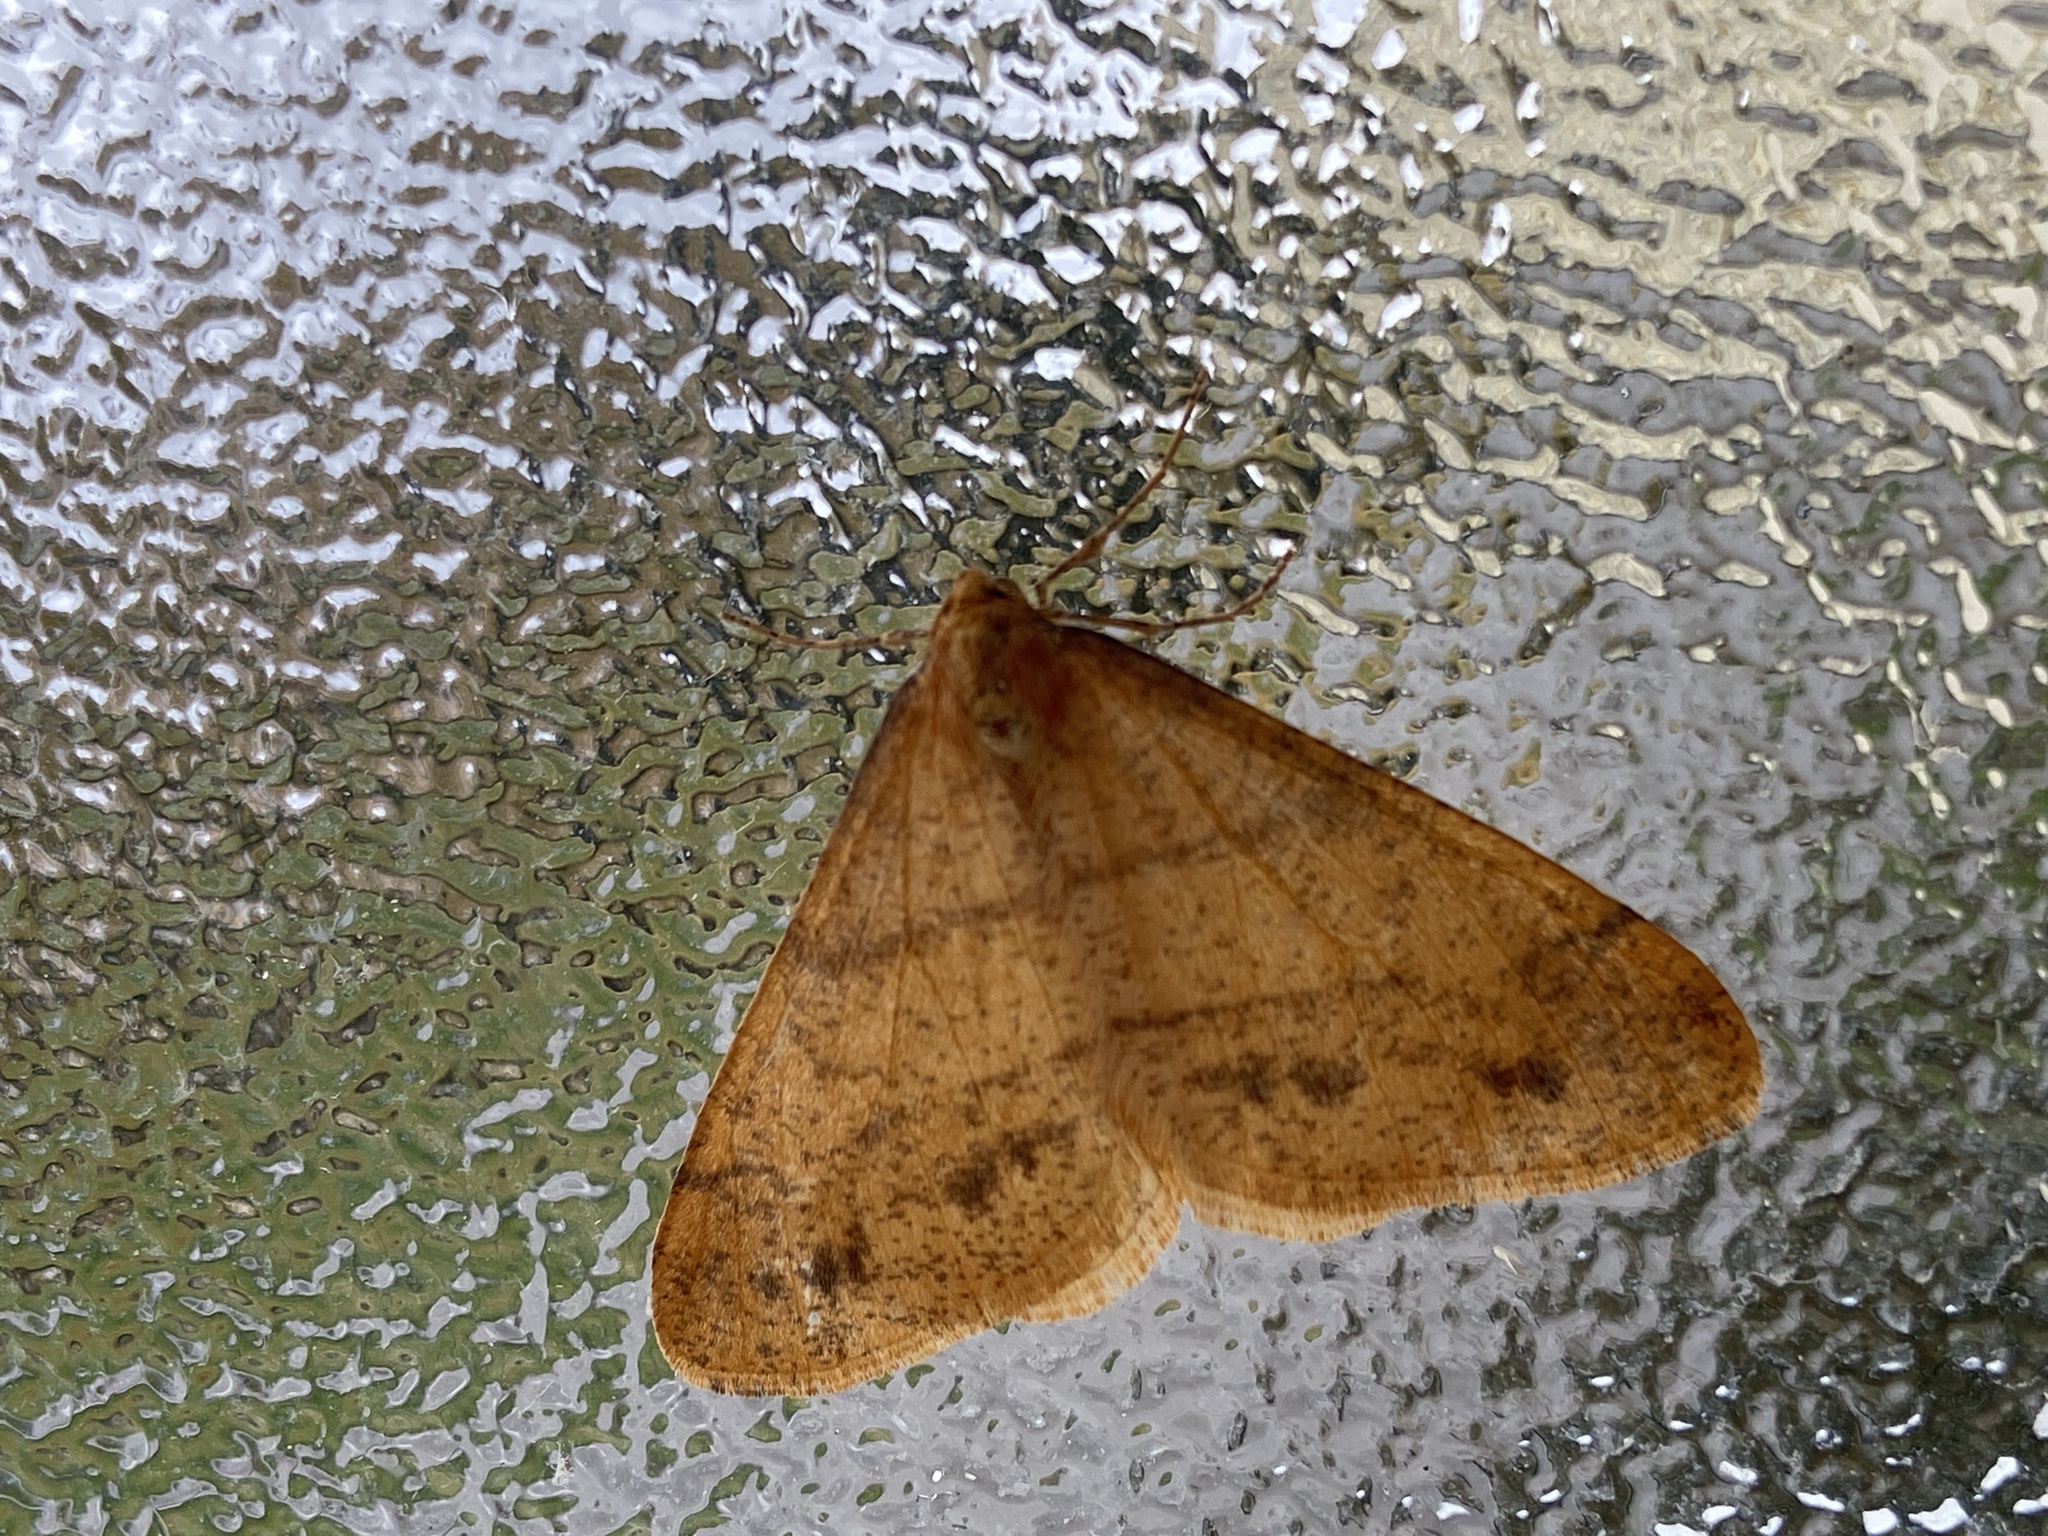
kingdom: Animalia
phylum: Arthropoda
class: Insecta
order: Lepidoptera
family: Geometridae
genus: Agriopis
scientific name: Agriopis aurantiaria
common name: Scarce umber
